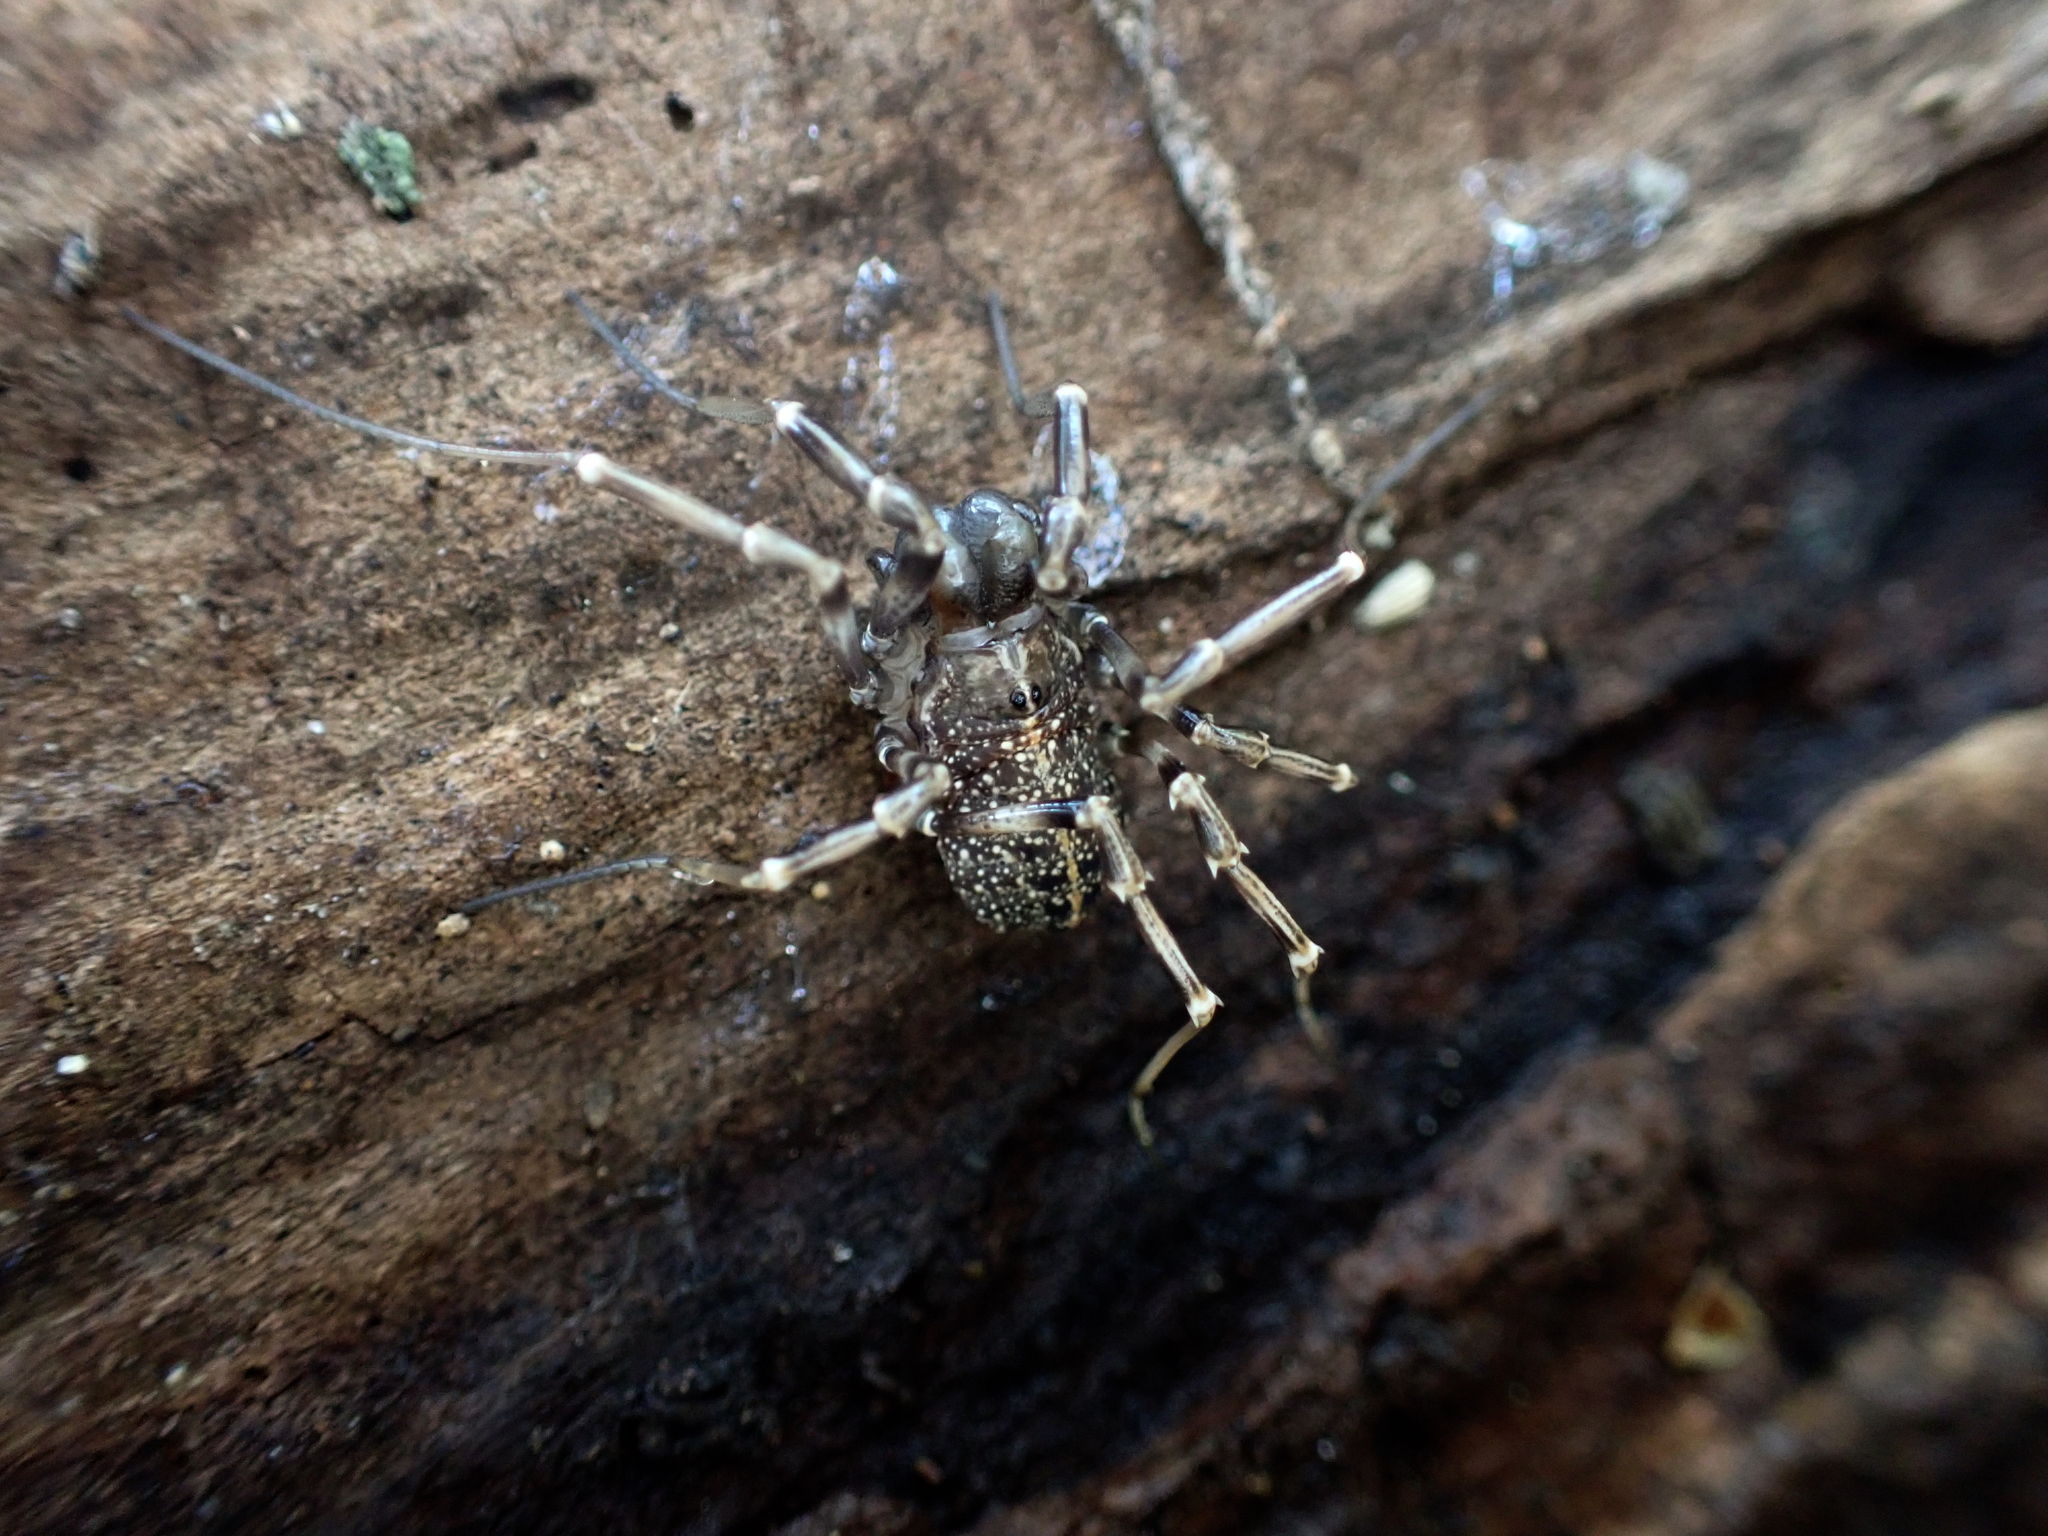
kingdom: Animalia
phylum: Arthropoda
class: Arachnida
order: Opiliones
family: Phalangiidae
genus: Egaenus
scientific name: Egaenus convexus
